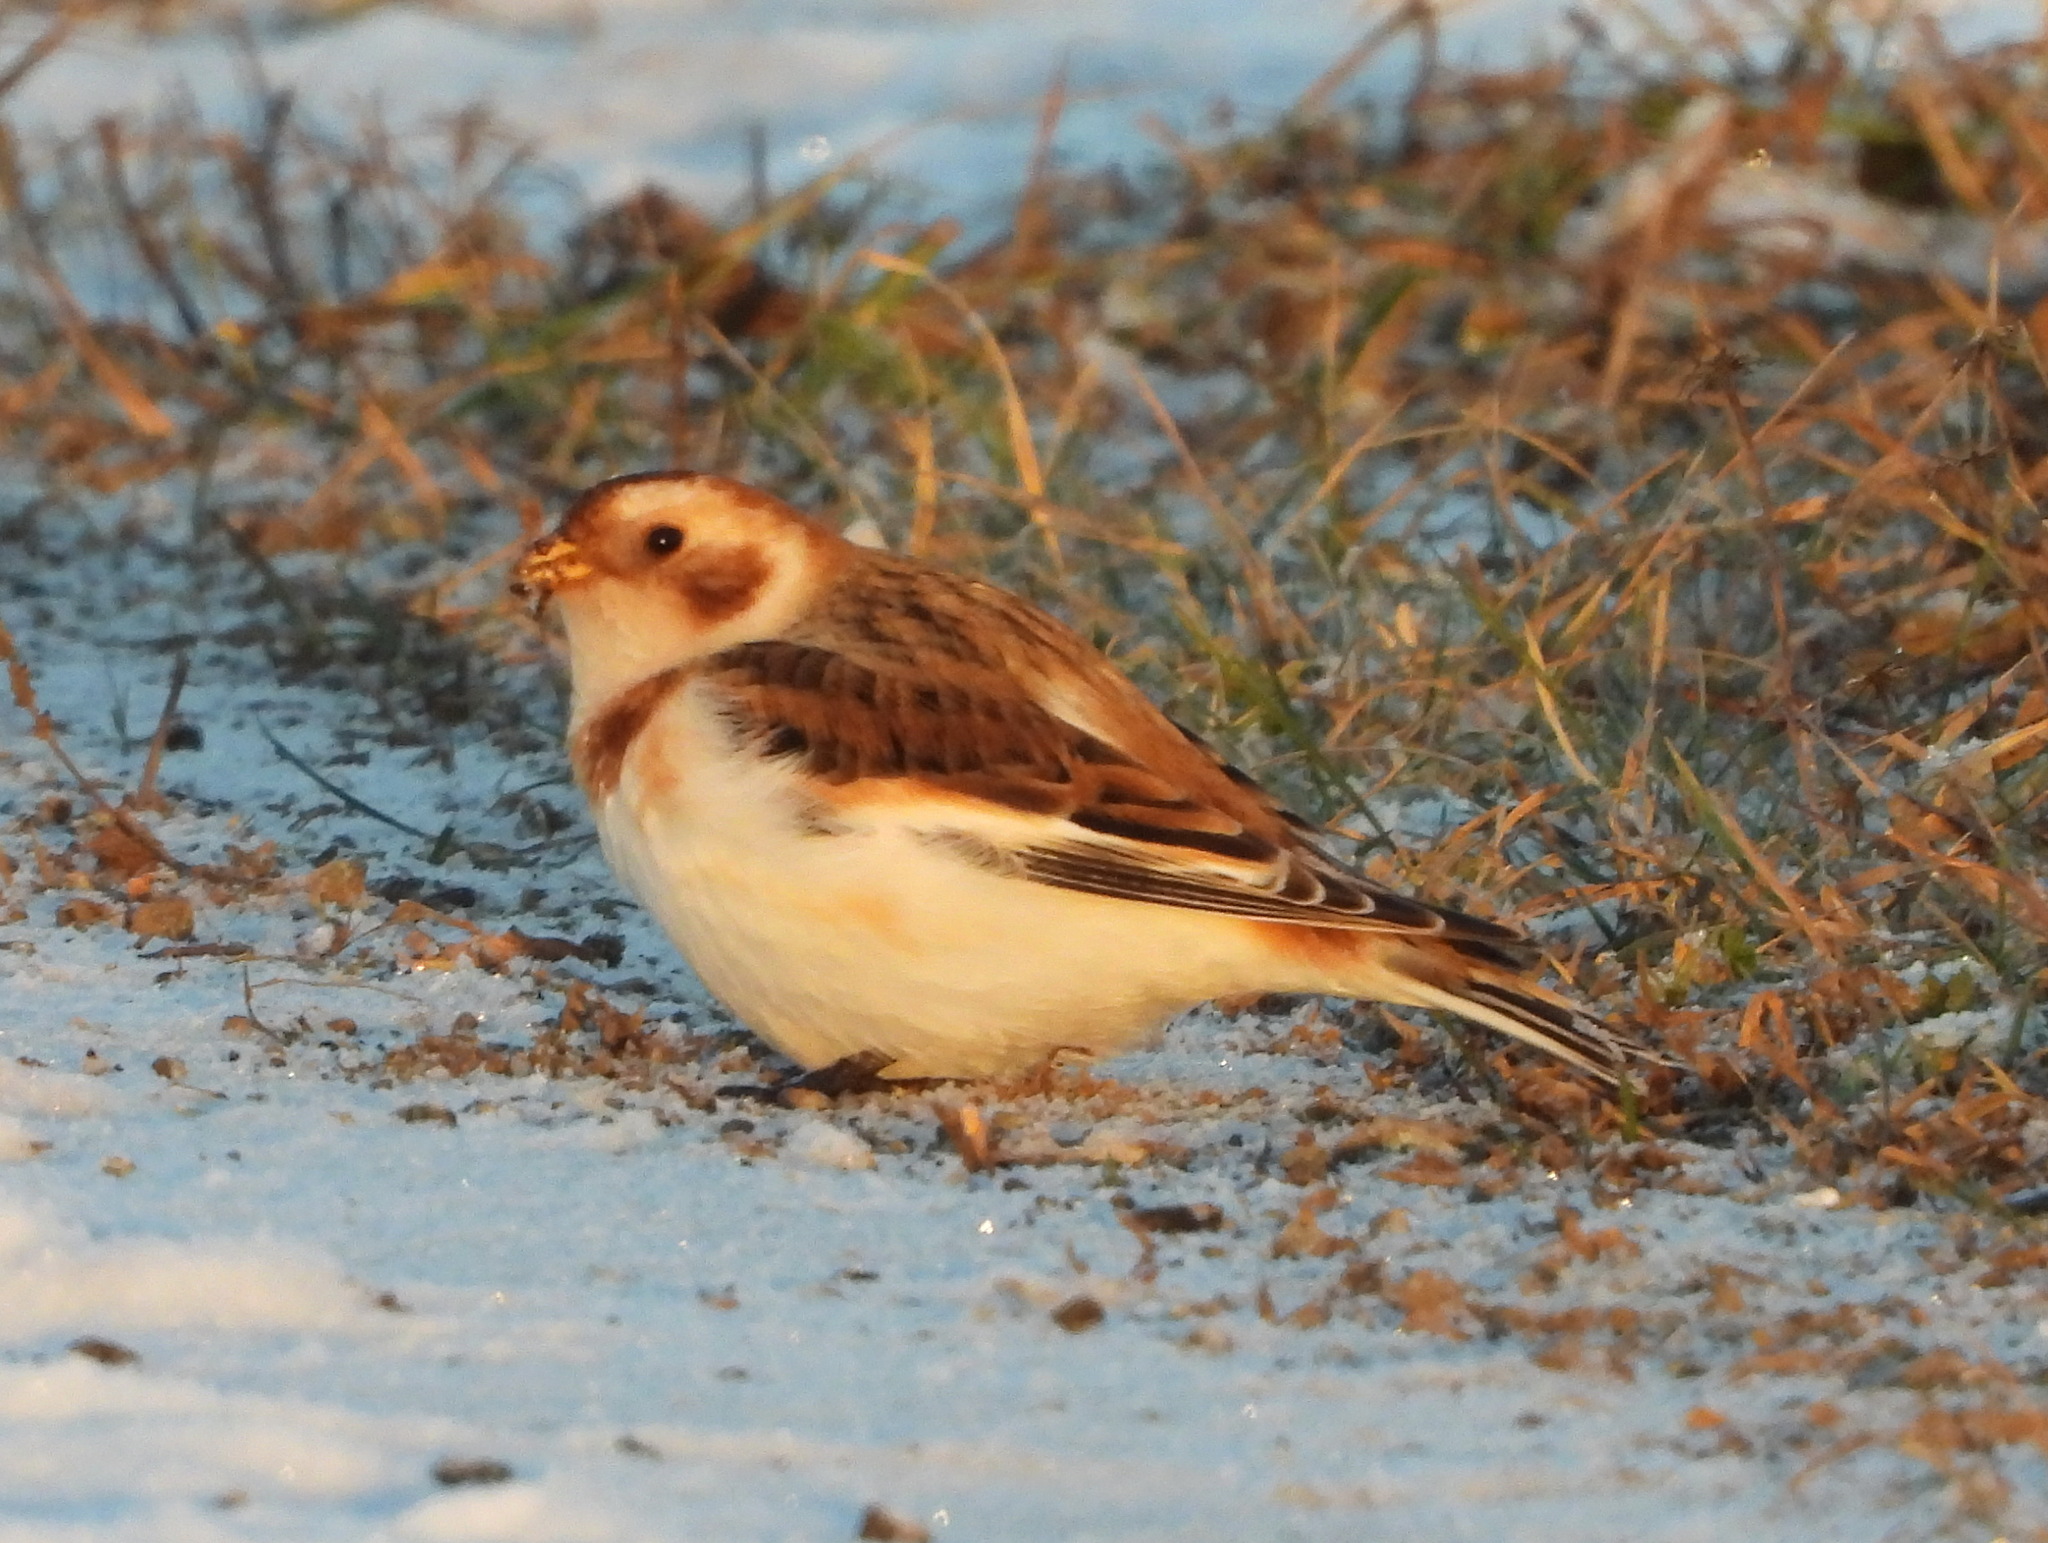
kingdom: Animalia
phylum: Chordata
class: Aves
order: Passeriformes
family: Calcariidae
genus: Plectrophenax
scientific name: Plectrophenax nivalis
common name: Snow bunting
